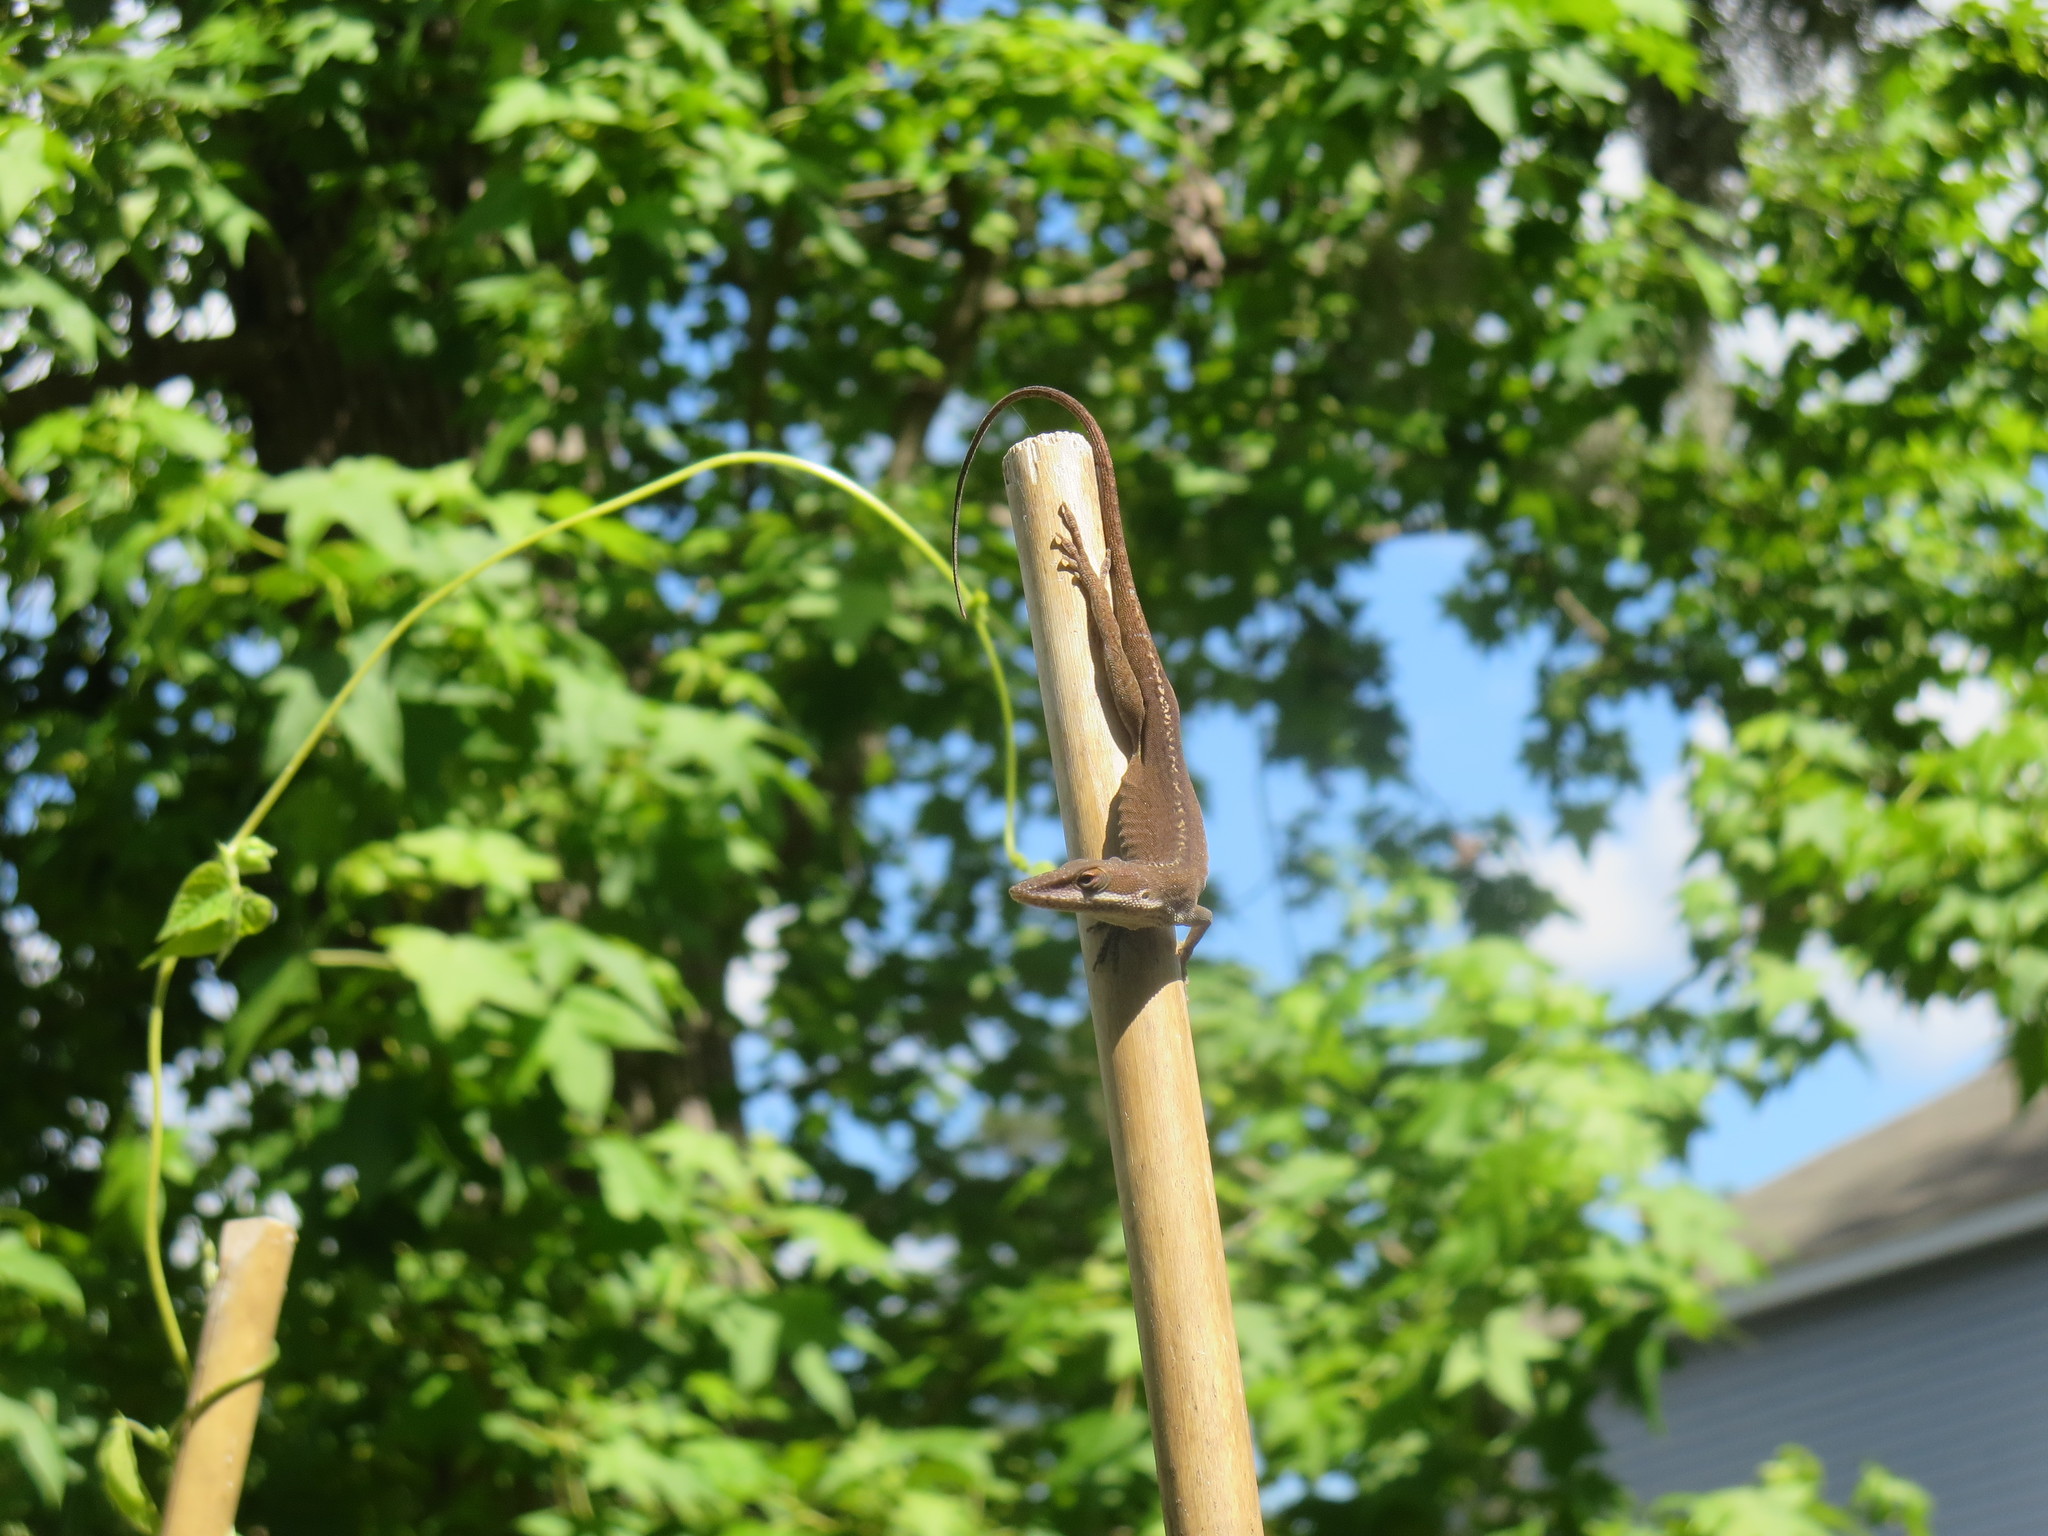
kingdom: Animalia
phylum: Chordata
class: Squamata
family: Dactyloidae
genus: Anolis
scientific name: Anolis carolinensis
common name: Green anole
